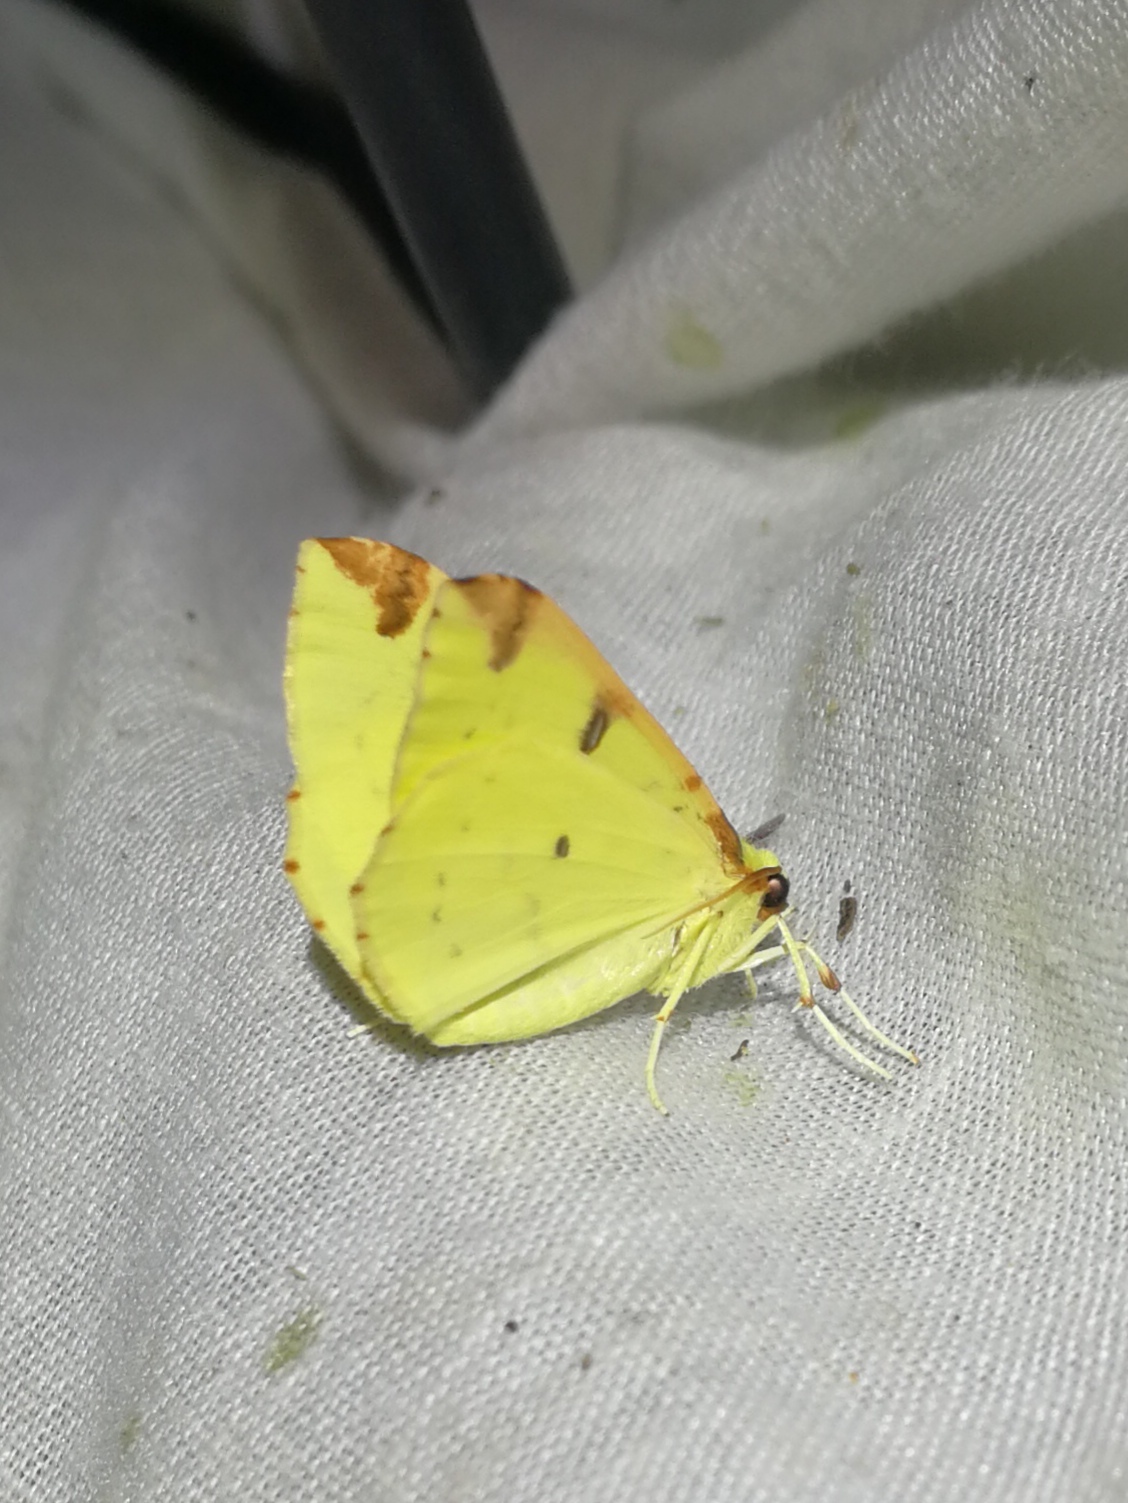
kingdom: Animalia
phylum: Arthropoda
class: Insecta
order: Lepidoptera
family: Geometridae
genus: Opisthograptis
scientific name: Opisthograptis luteolata
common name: Brimstone moth
